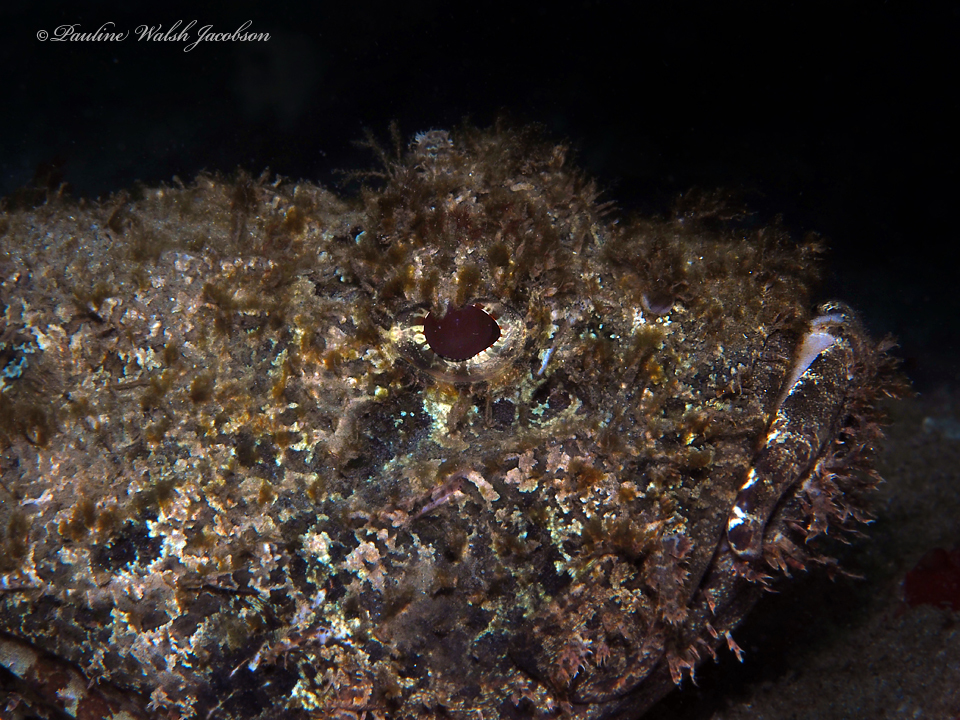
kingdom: Animalia
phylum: Chordata
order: Scorpaeniformes
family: Scorpaenidae
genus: Scorpaena
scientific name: Scorpaena plumieri
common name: Spotted scorpionfish
